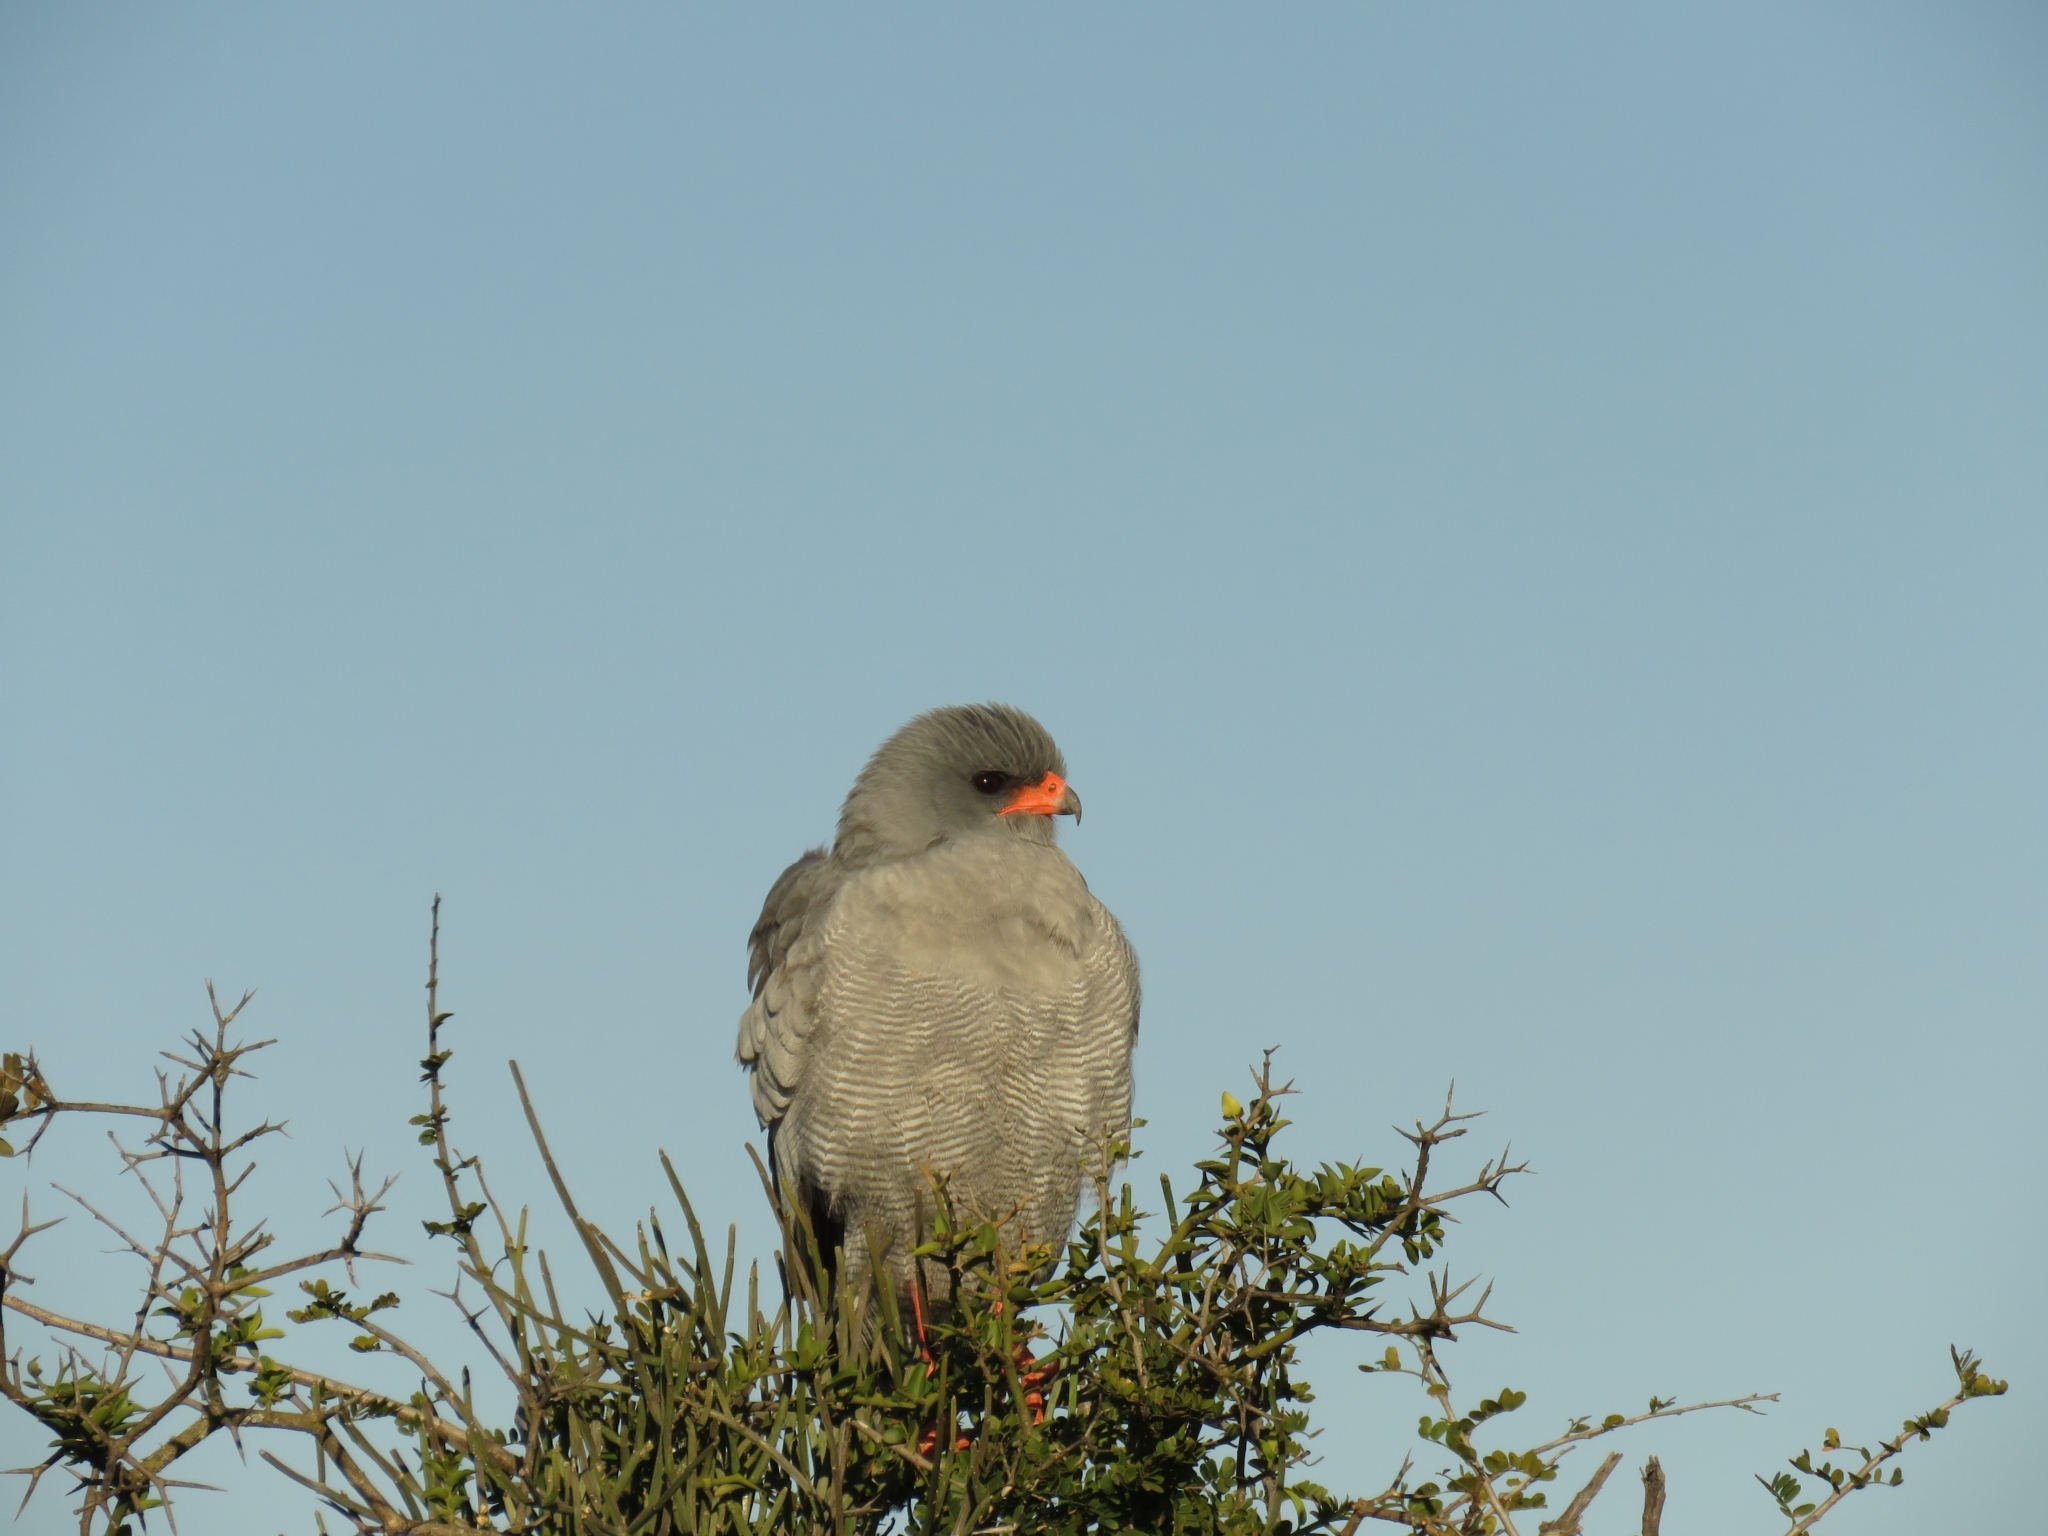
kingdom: Animalia
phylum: Chordata
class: Aves
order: Accipitriformes
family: Accipitridae
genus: Melierax
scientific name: Melierax canorus
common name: Pale chanting-goshawk
